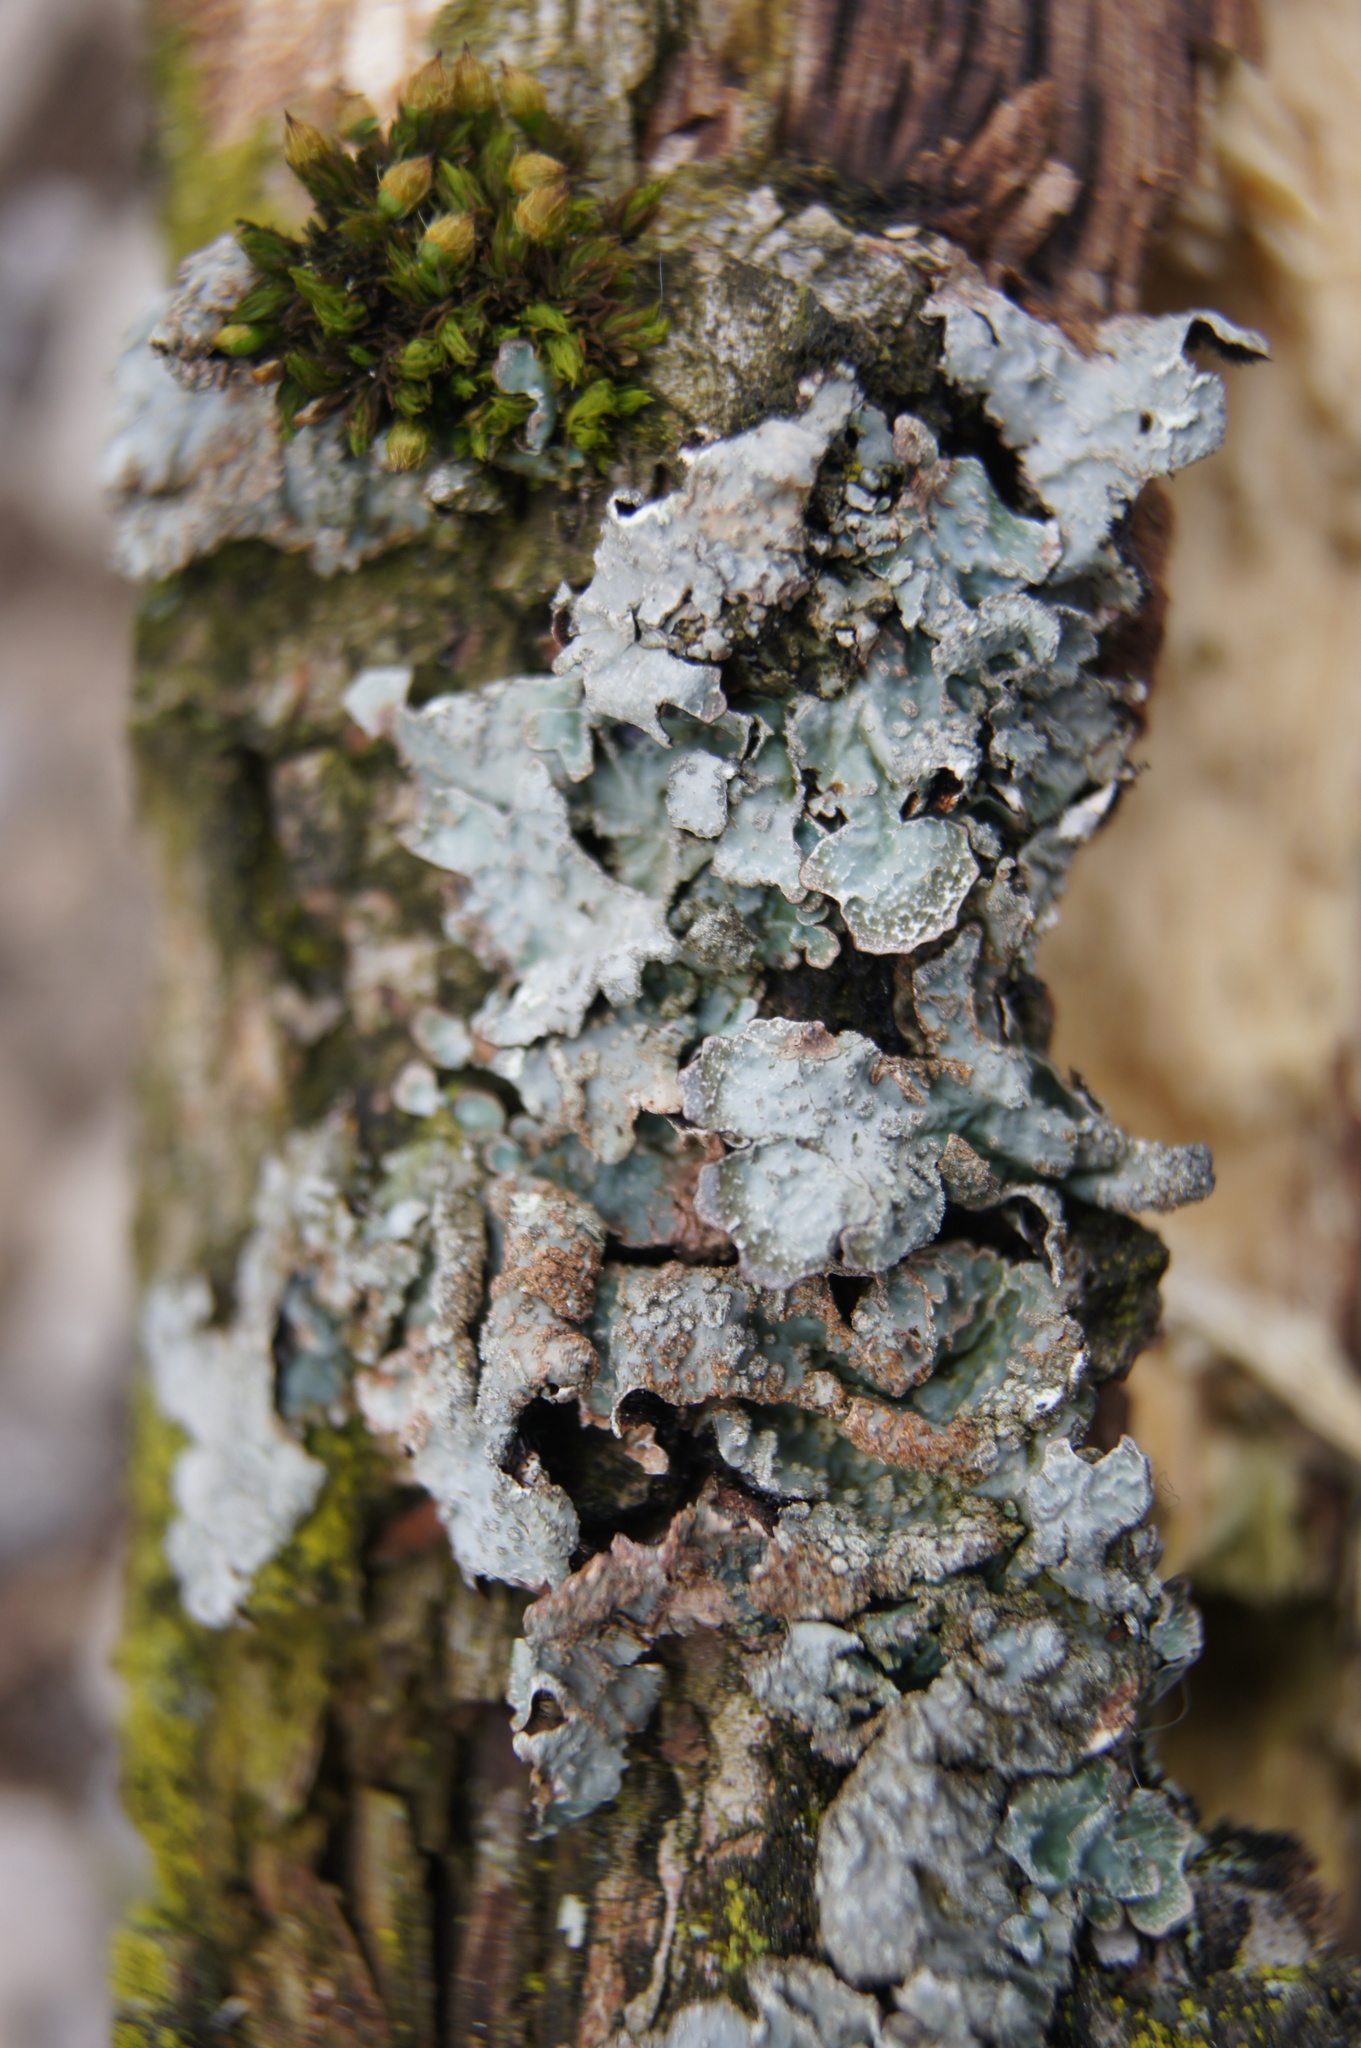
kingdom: Fungi
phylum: Ascomycota
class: Lecanoromycetes
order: Lecanorales
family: Parmeliaceae
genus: Parmelia
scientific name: Parmelia sulcata
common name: Netted shield lichen
